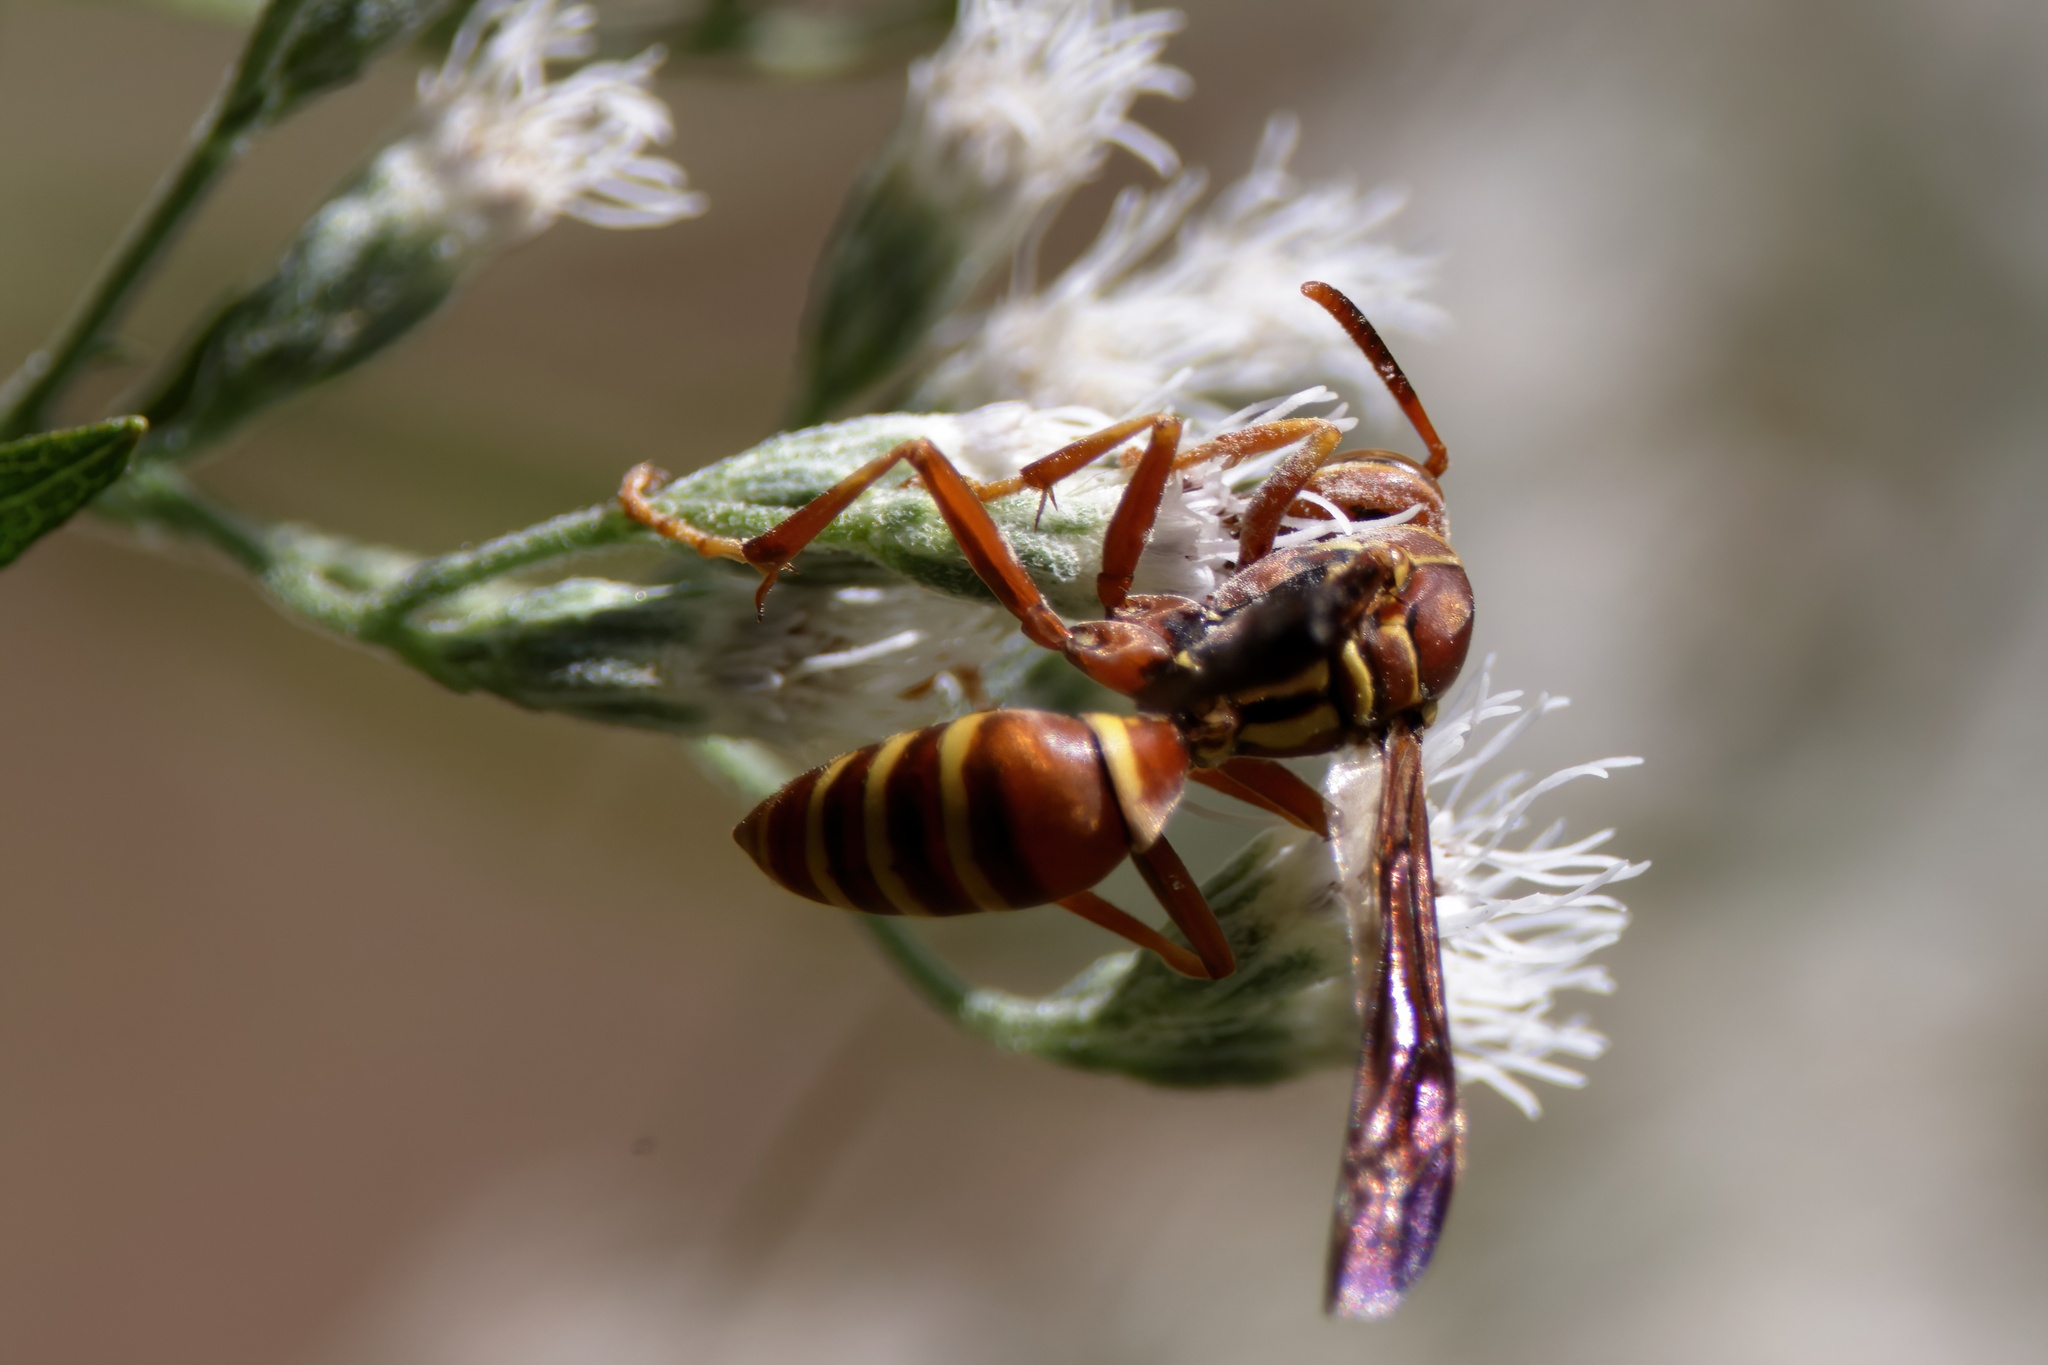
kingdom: Animalia
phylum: Arthropoda
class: Insecta
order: Hymenoptera
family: Eumenidae
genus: Polistes
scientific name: Polistes dorsalis
